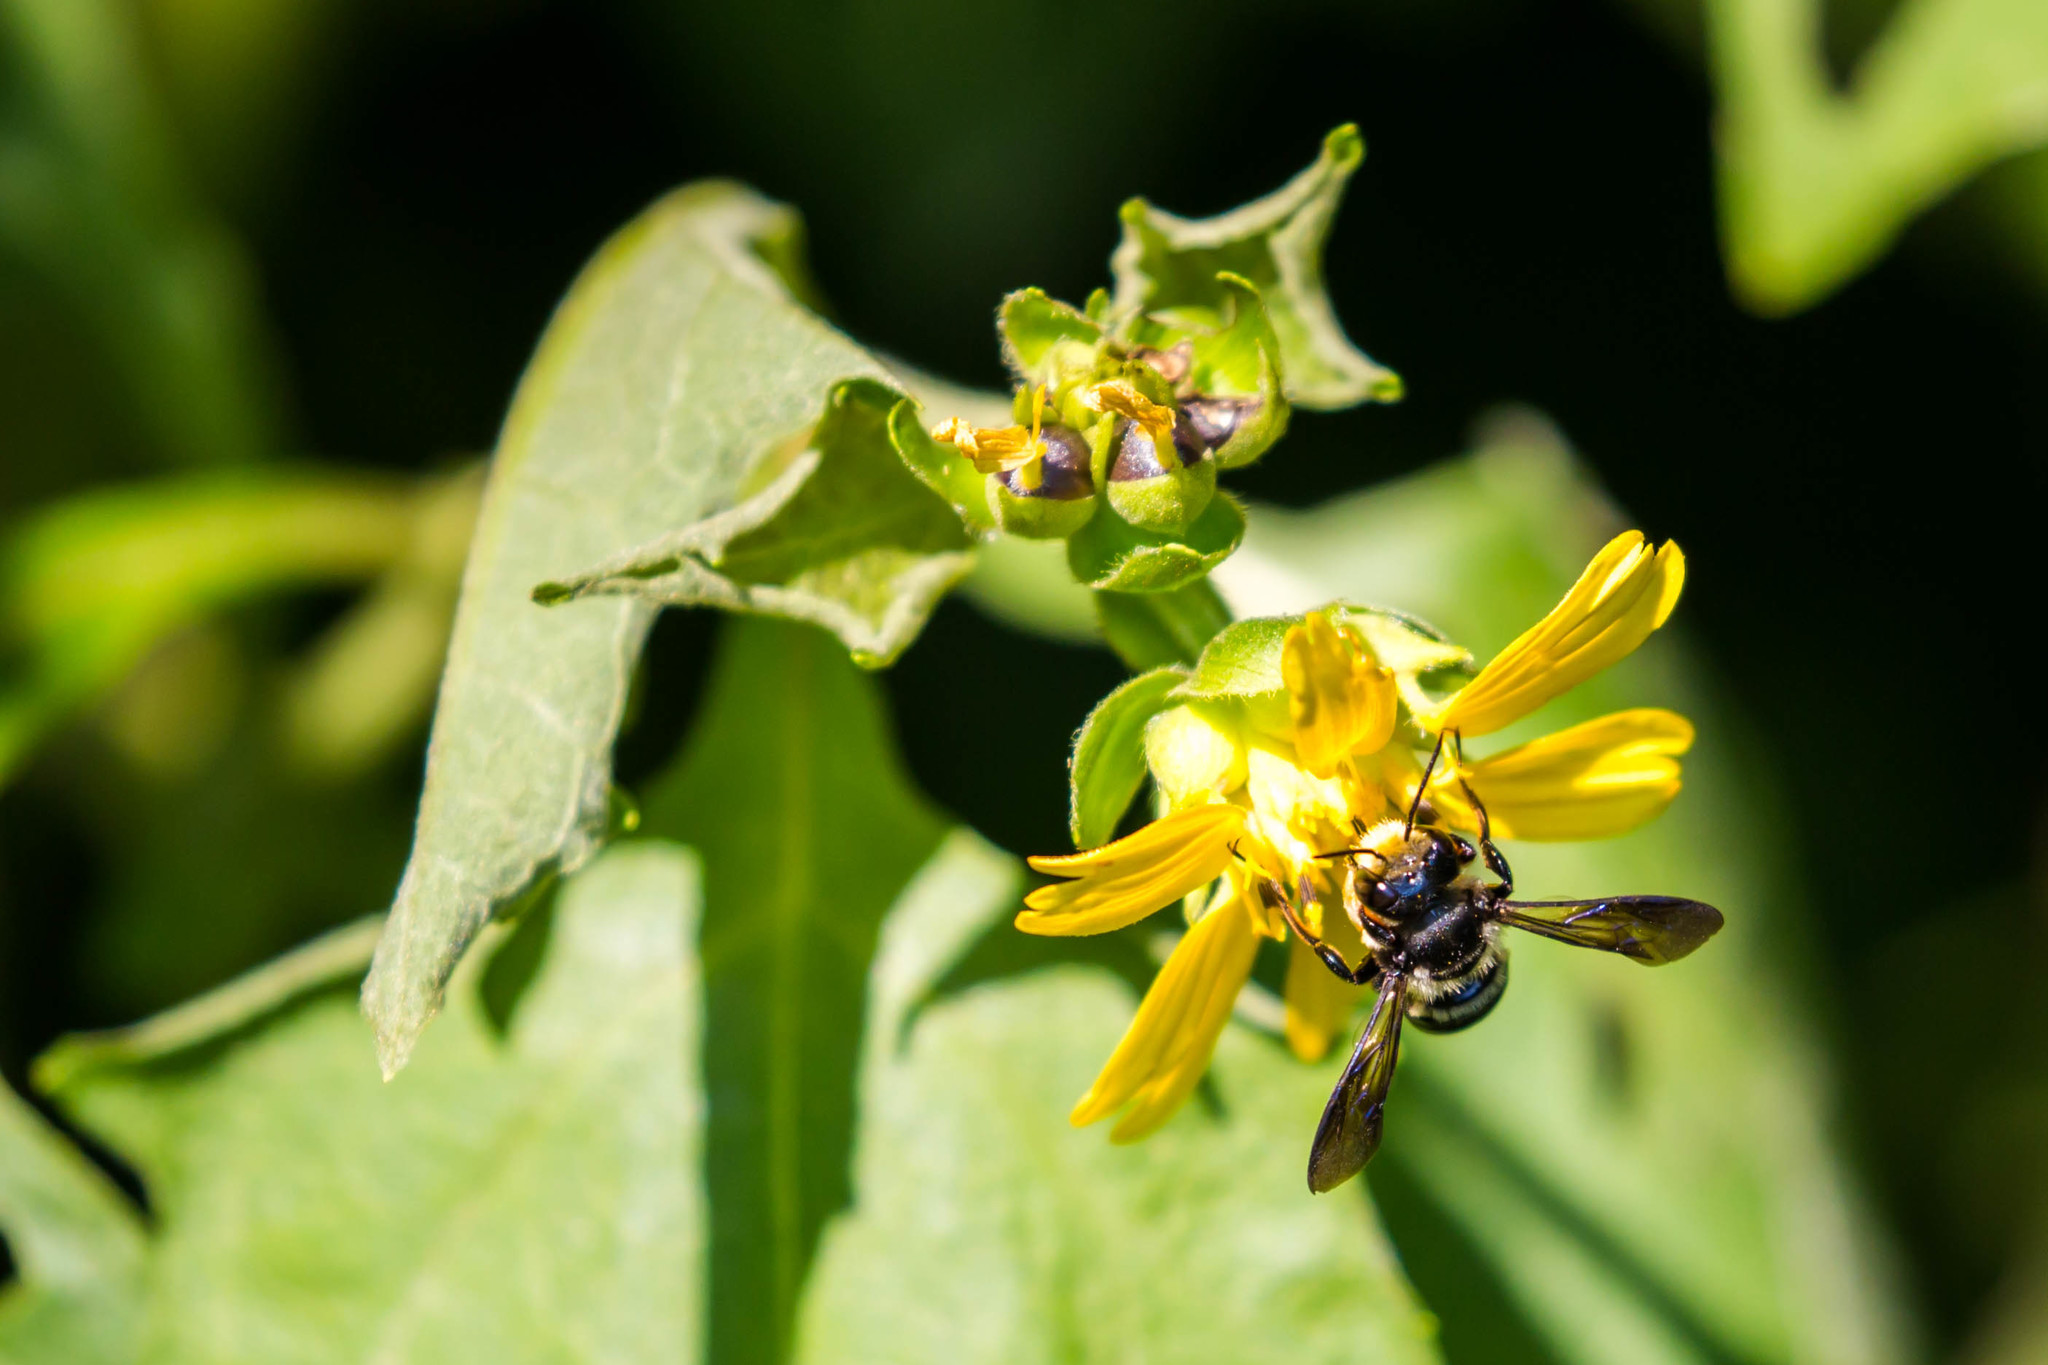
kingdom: Animalia
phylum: Arthropoda
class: Insecta
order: Hymenoptera
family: Megachilidae
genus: Megachile
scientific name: Megachile xylocopoides
